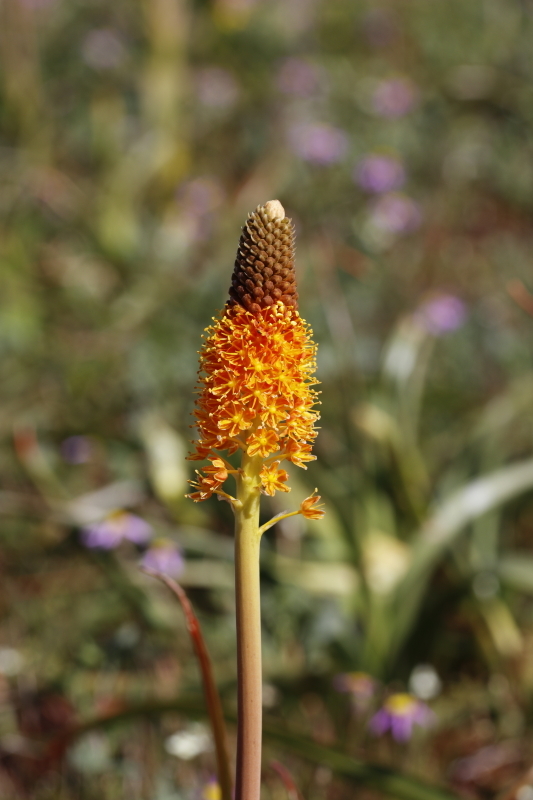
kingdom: Plantae
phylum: Tracheophyta
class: Liliopsida
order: Asparagales
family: Asphodelaceae
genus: Bulbinella
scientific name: Bulbinella latifolia
